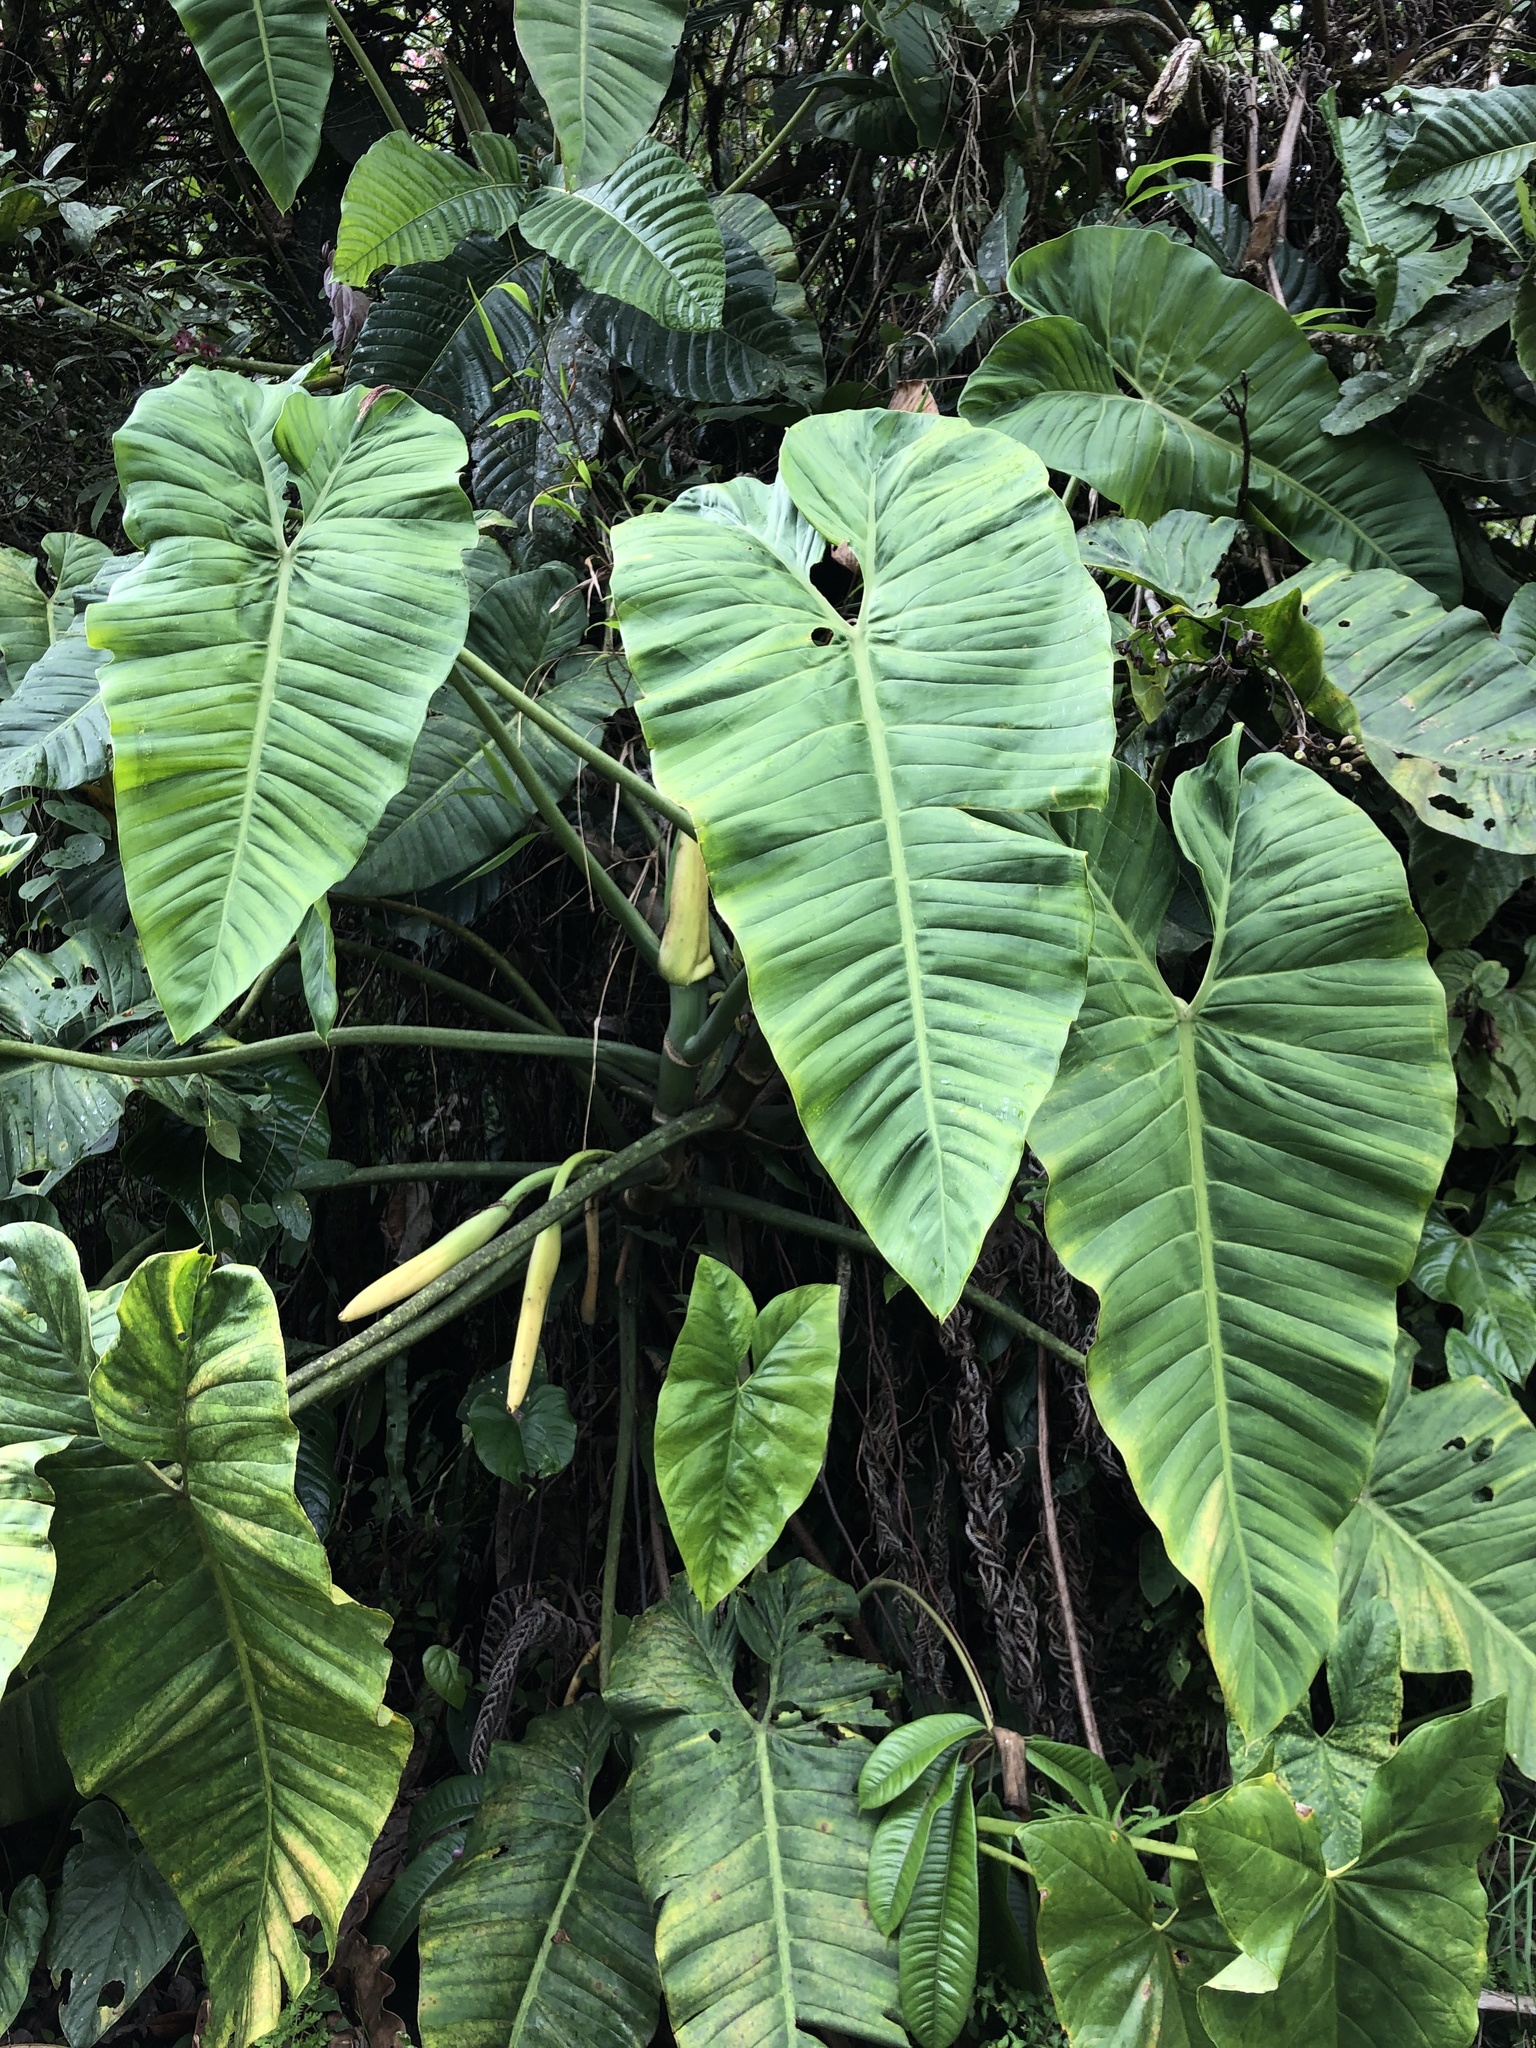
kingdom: Plantae
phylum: Tracheophyta
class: Liliopsida
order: Alismatales
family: Araceae
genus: Philodendron
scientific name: Philodendron deflexum
